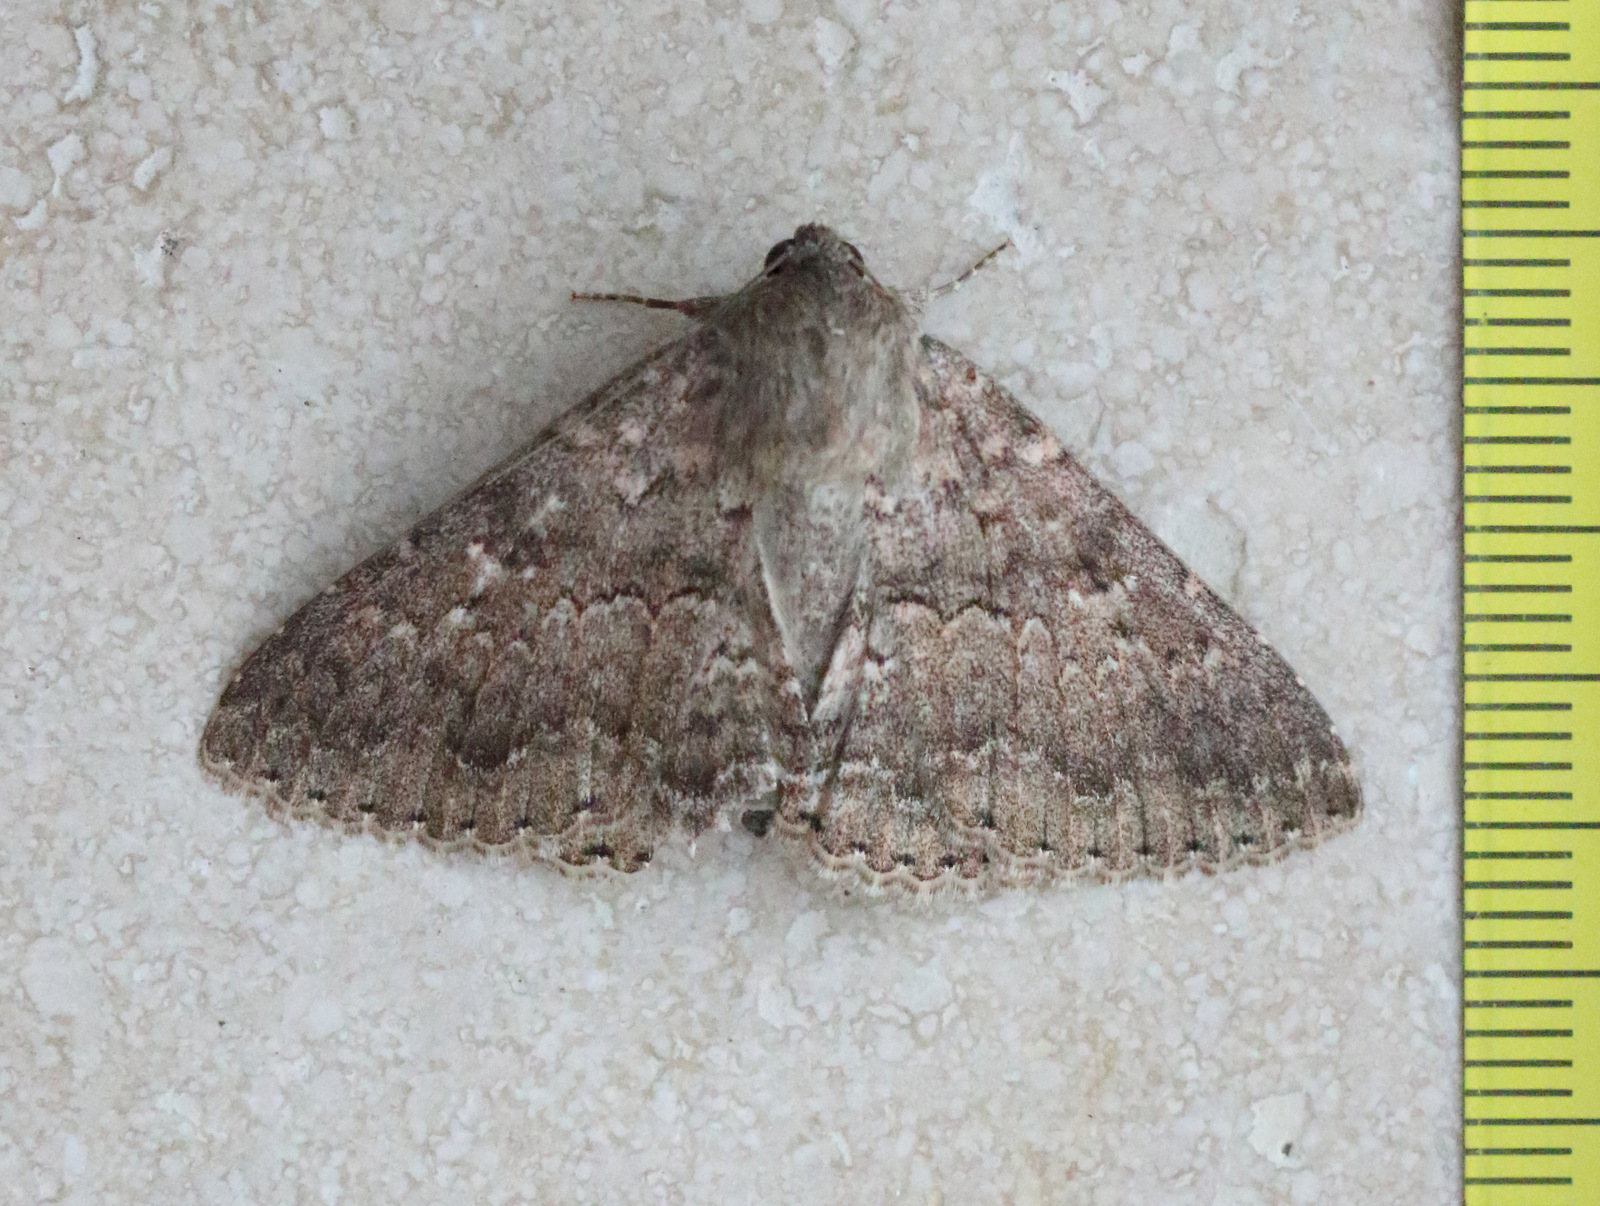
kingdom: Animalia
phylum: Arthropoda
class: Insecta
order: Lepidoptera
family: Erebidae
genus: Eudesmeola
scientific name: Eudesmeola lawsoni
